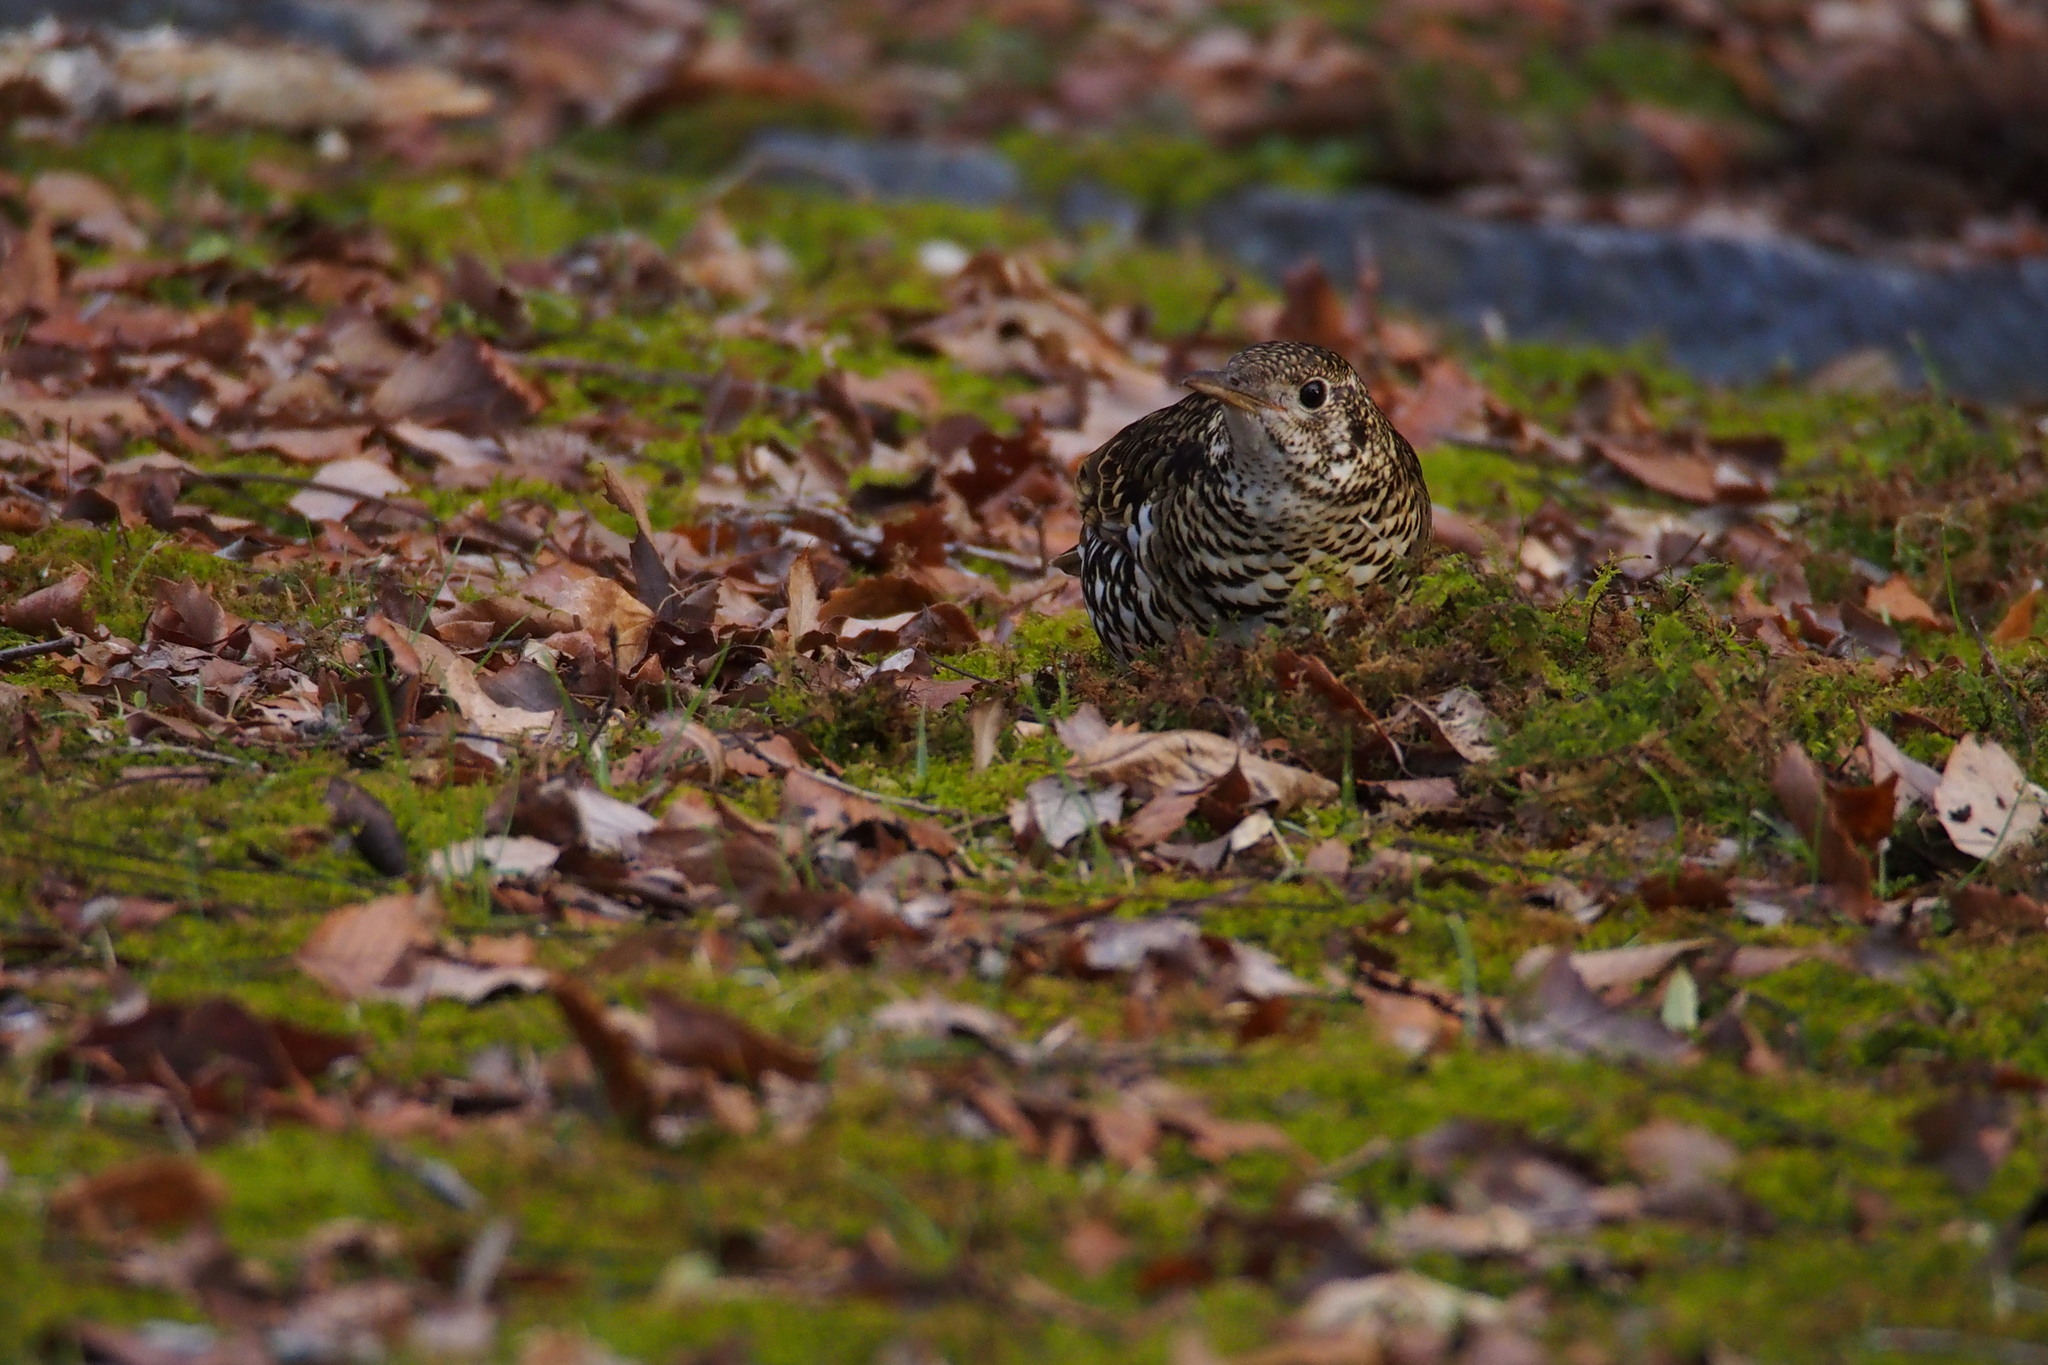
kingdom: Animalia
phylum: Chordata
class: Aves
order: Passeriformes
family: Turdidae
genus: Zoothera
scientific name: Zoothera aurea
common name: White's thrush
